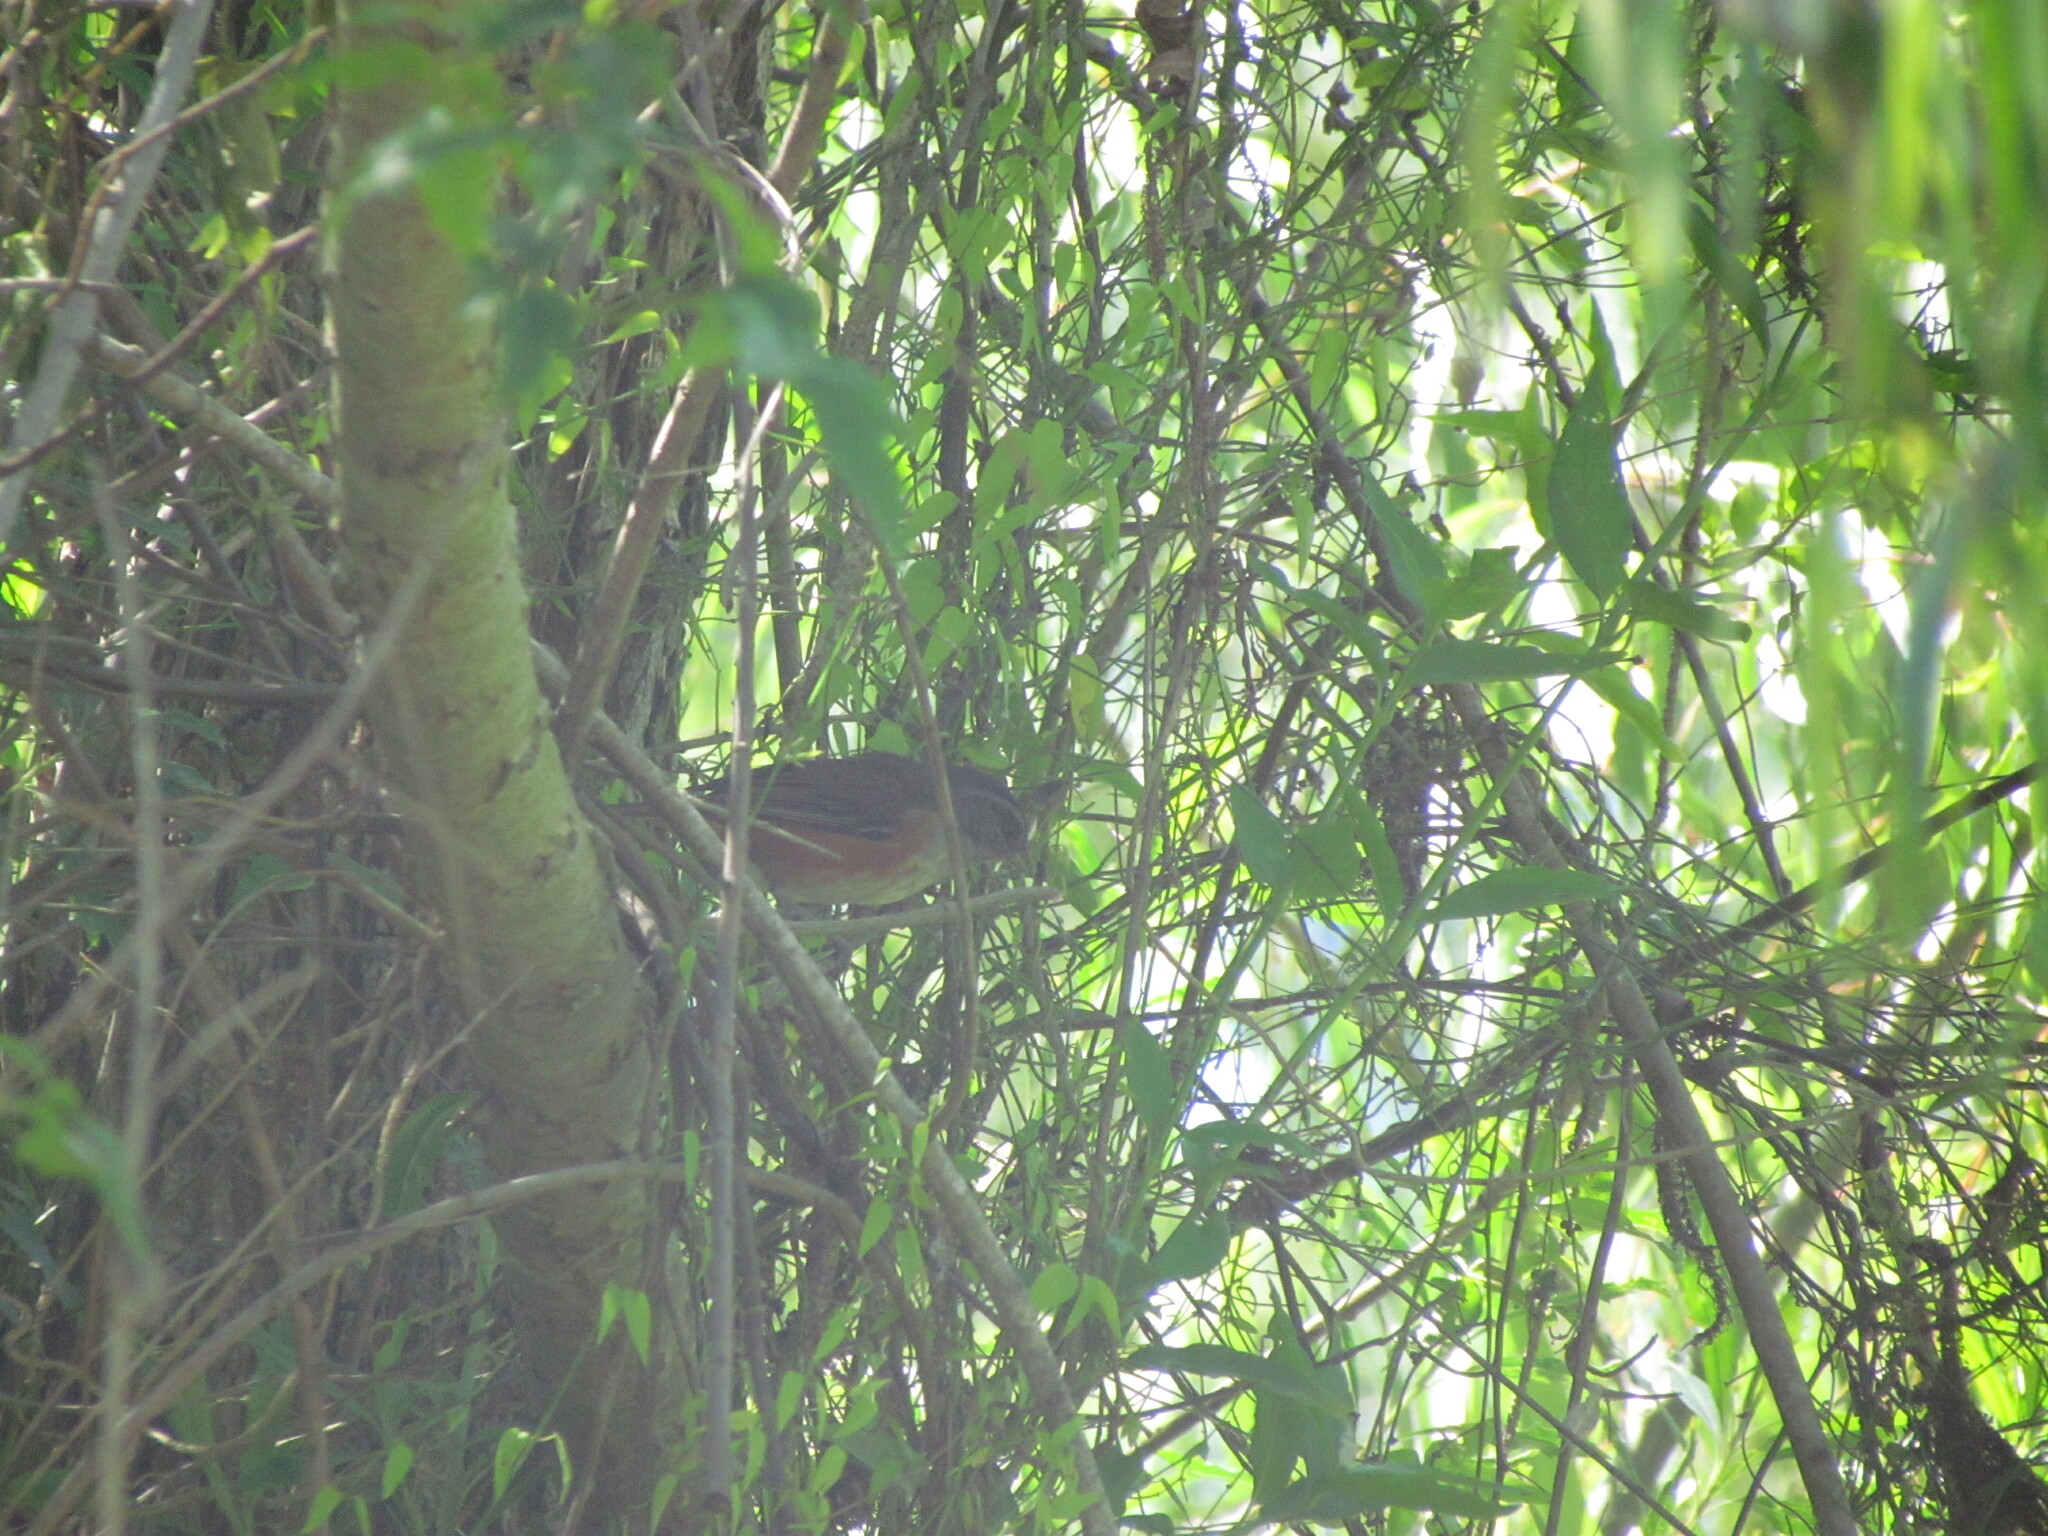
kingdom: Animalia
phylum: Chordata
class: Aves
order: Passeriformes
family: Thraupidae
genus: Microspingus
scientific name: Microspingus cabanisi
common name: Gray-throated warbling-finch
